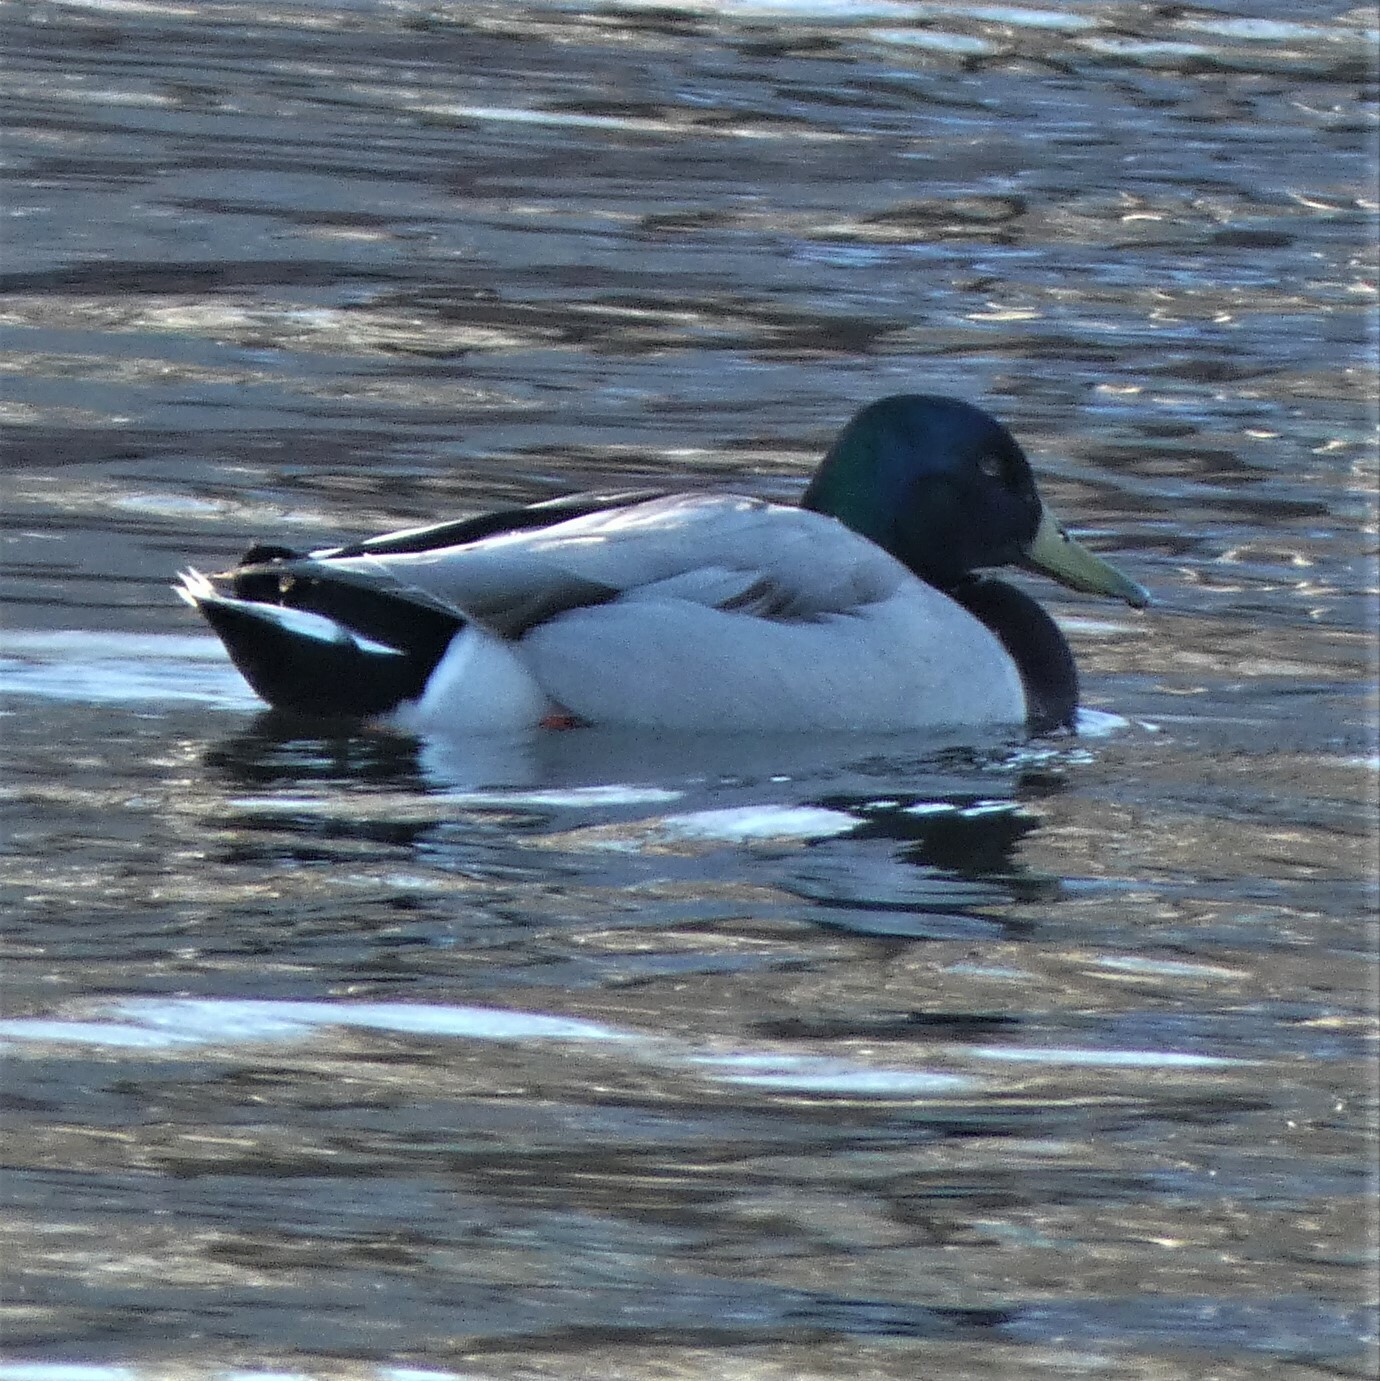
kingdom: Animalia
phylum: Chordata
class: Aves
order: Anseriformes
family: Anatidae
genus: Anas
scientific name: Anas platyrhynchos
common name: Mallard
